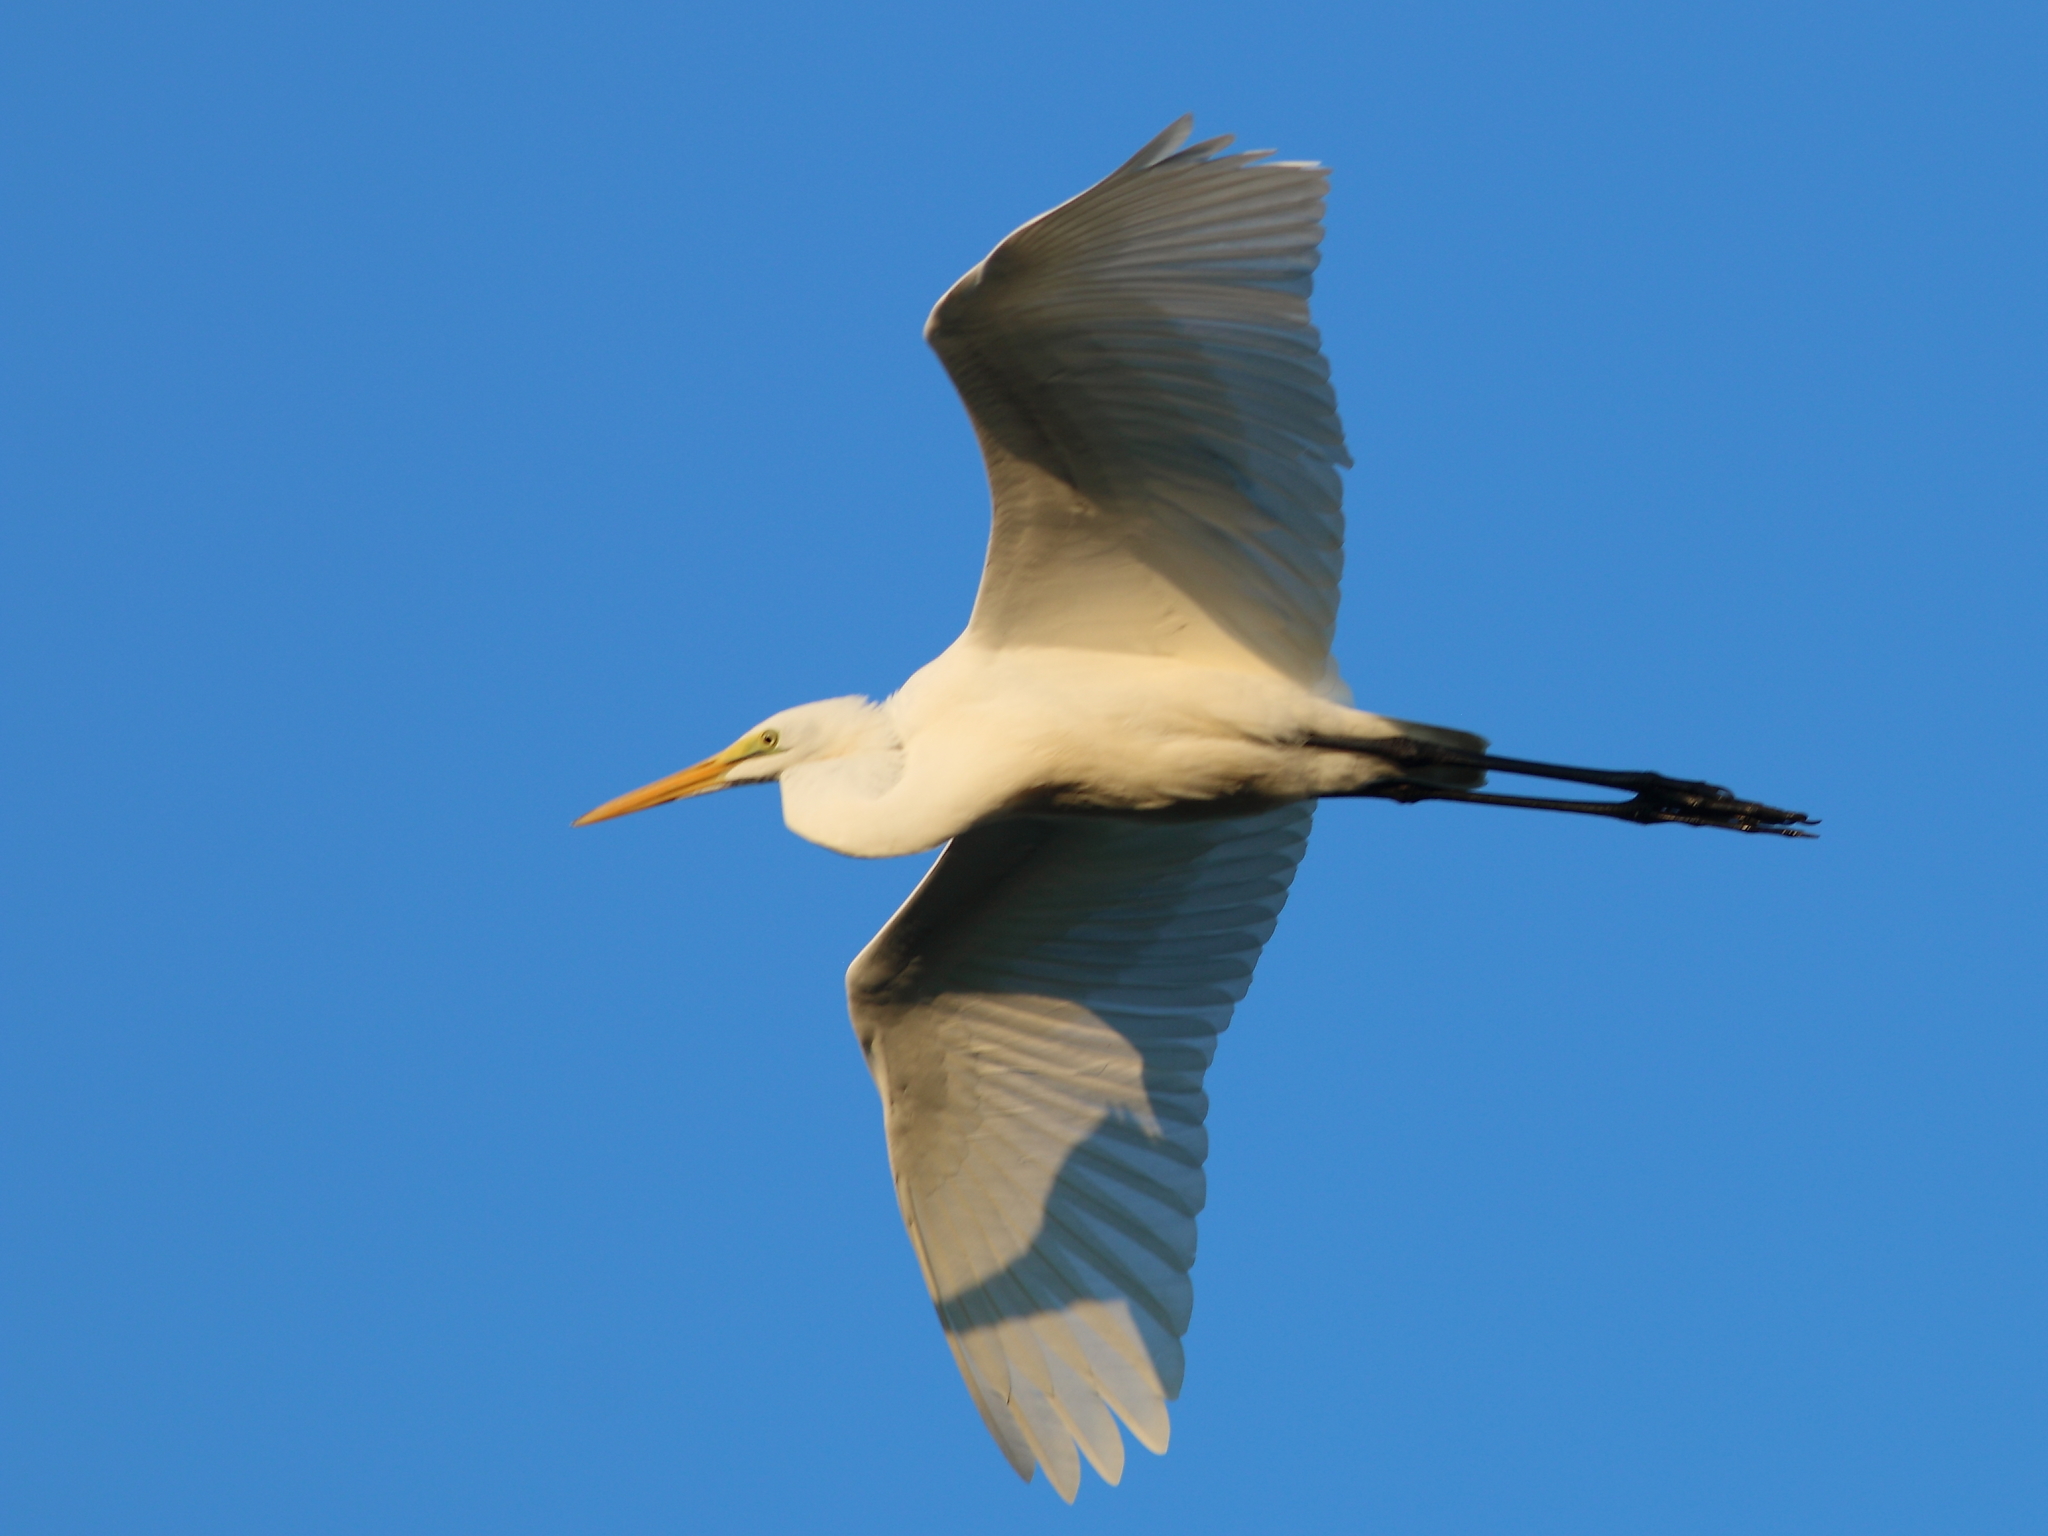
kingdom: Animalia
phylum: Chordata
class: Aves
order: Pelecaniformes
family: Ardeidae
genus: Ardea
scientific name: Ardea alba
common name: Great egret
